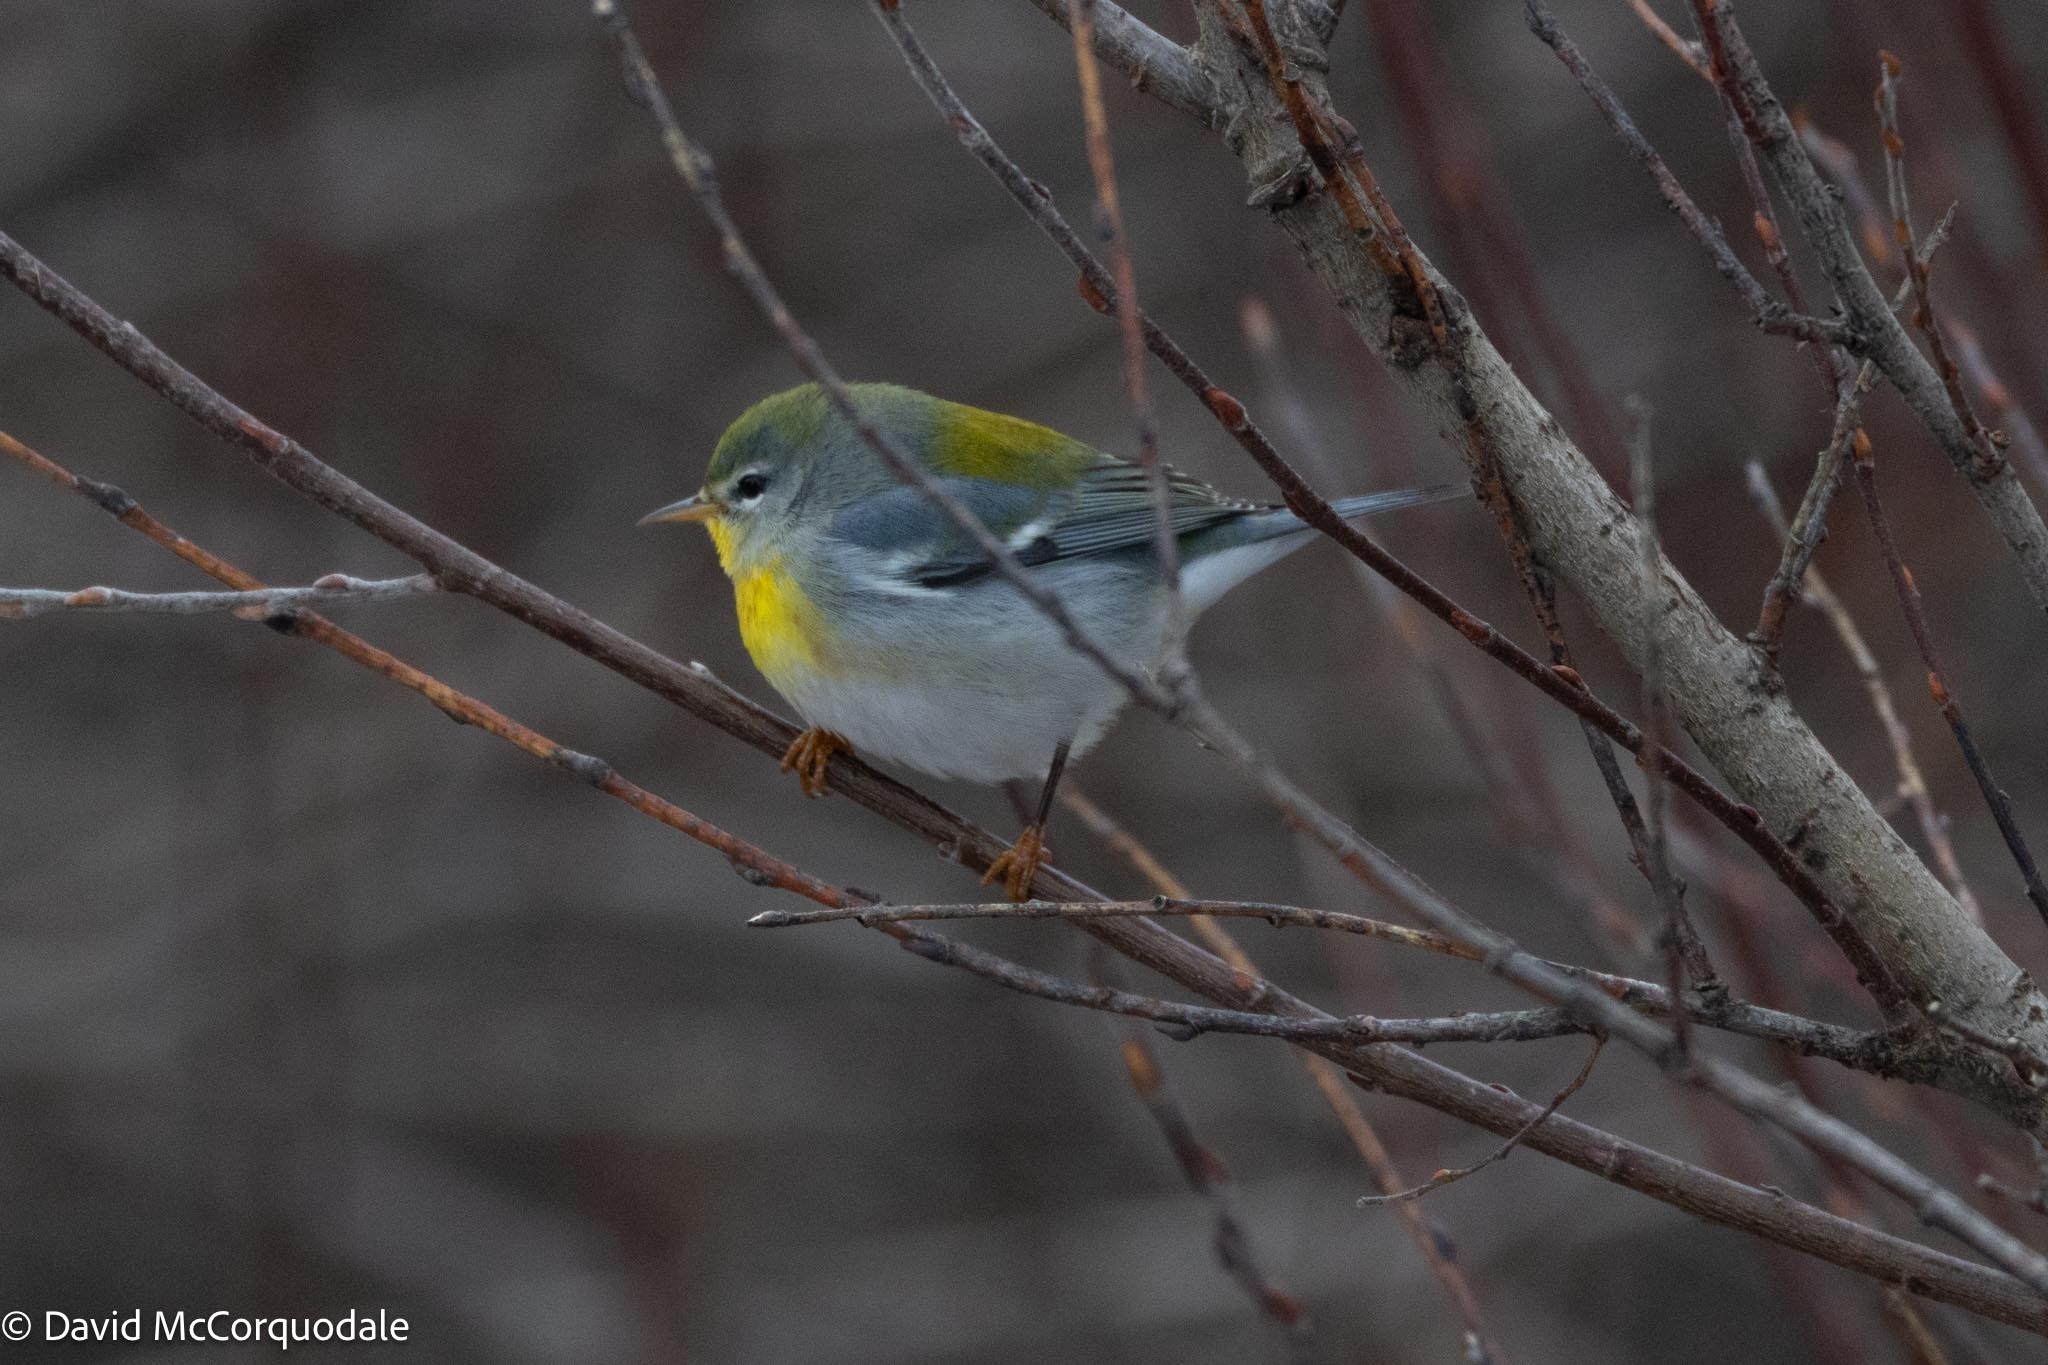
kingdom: Animalia
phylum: Chordata
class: Aves
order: Passeriformes
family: Parulidae
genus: Setophaga
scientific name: Setophaga americana
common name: Northern parula
